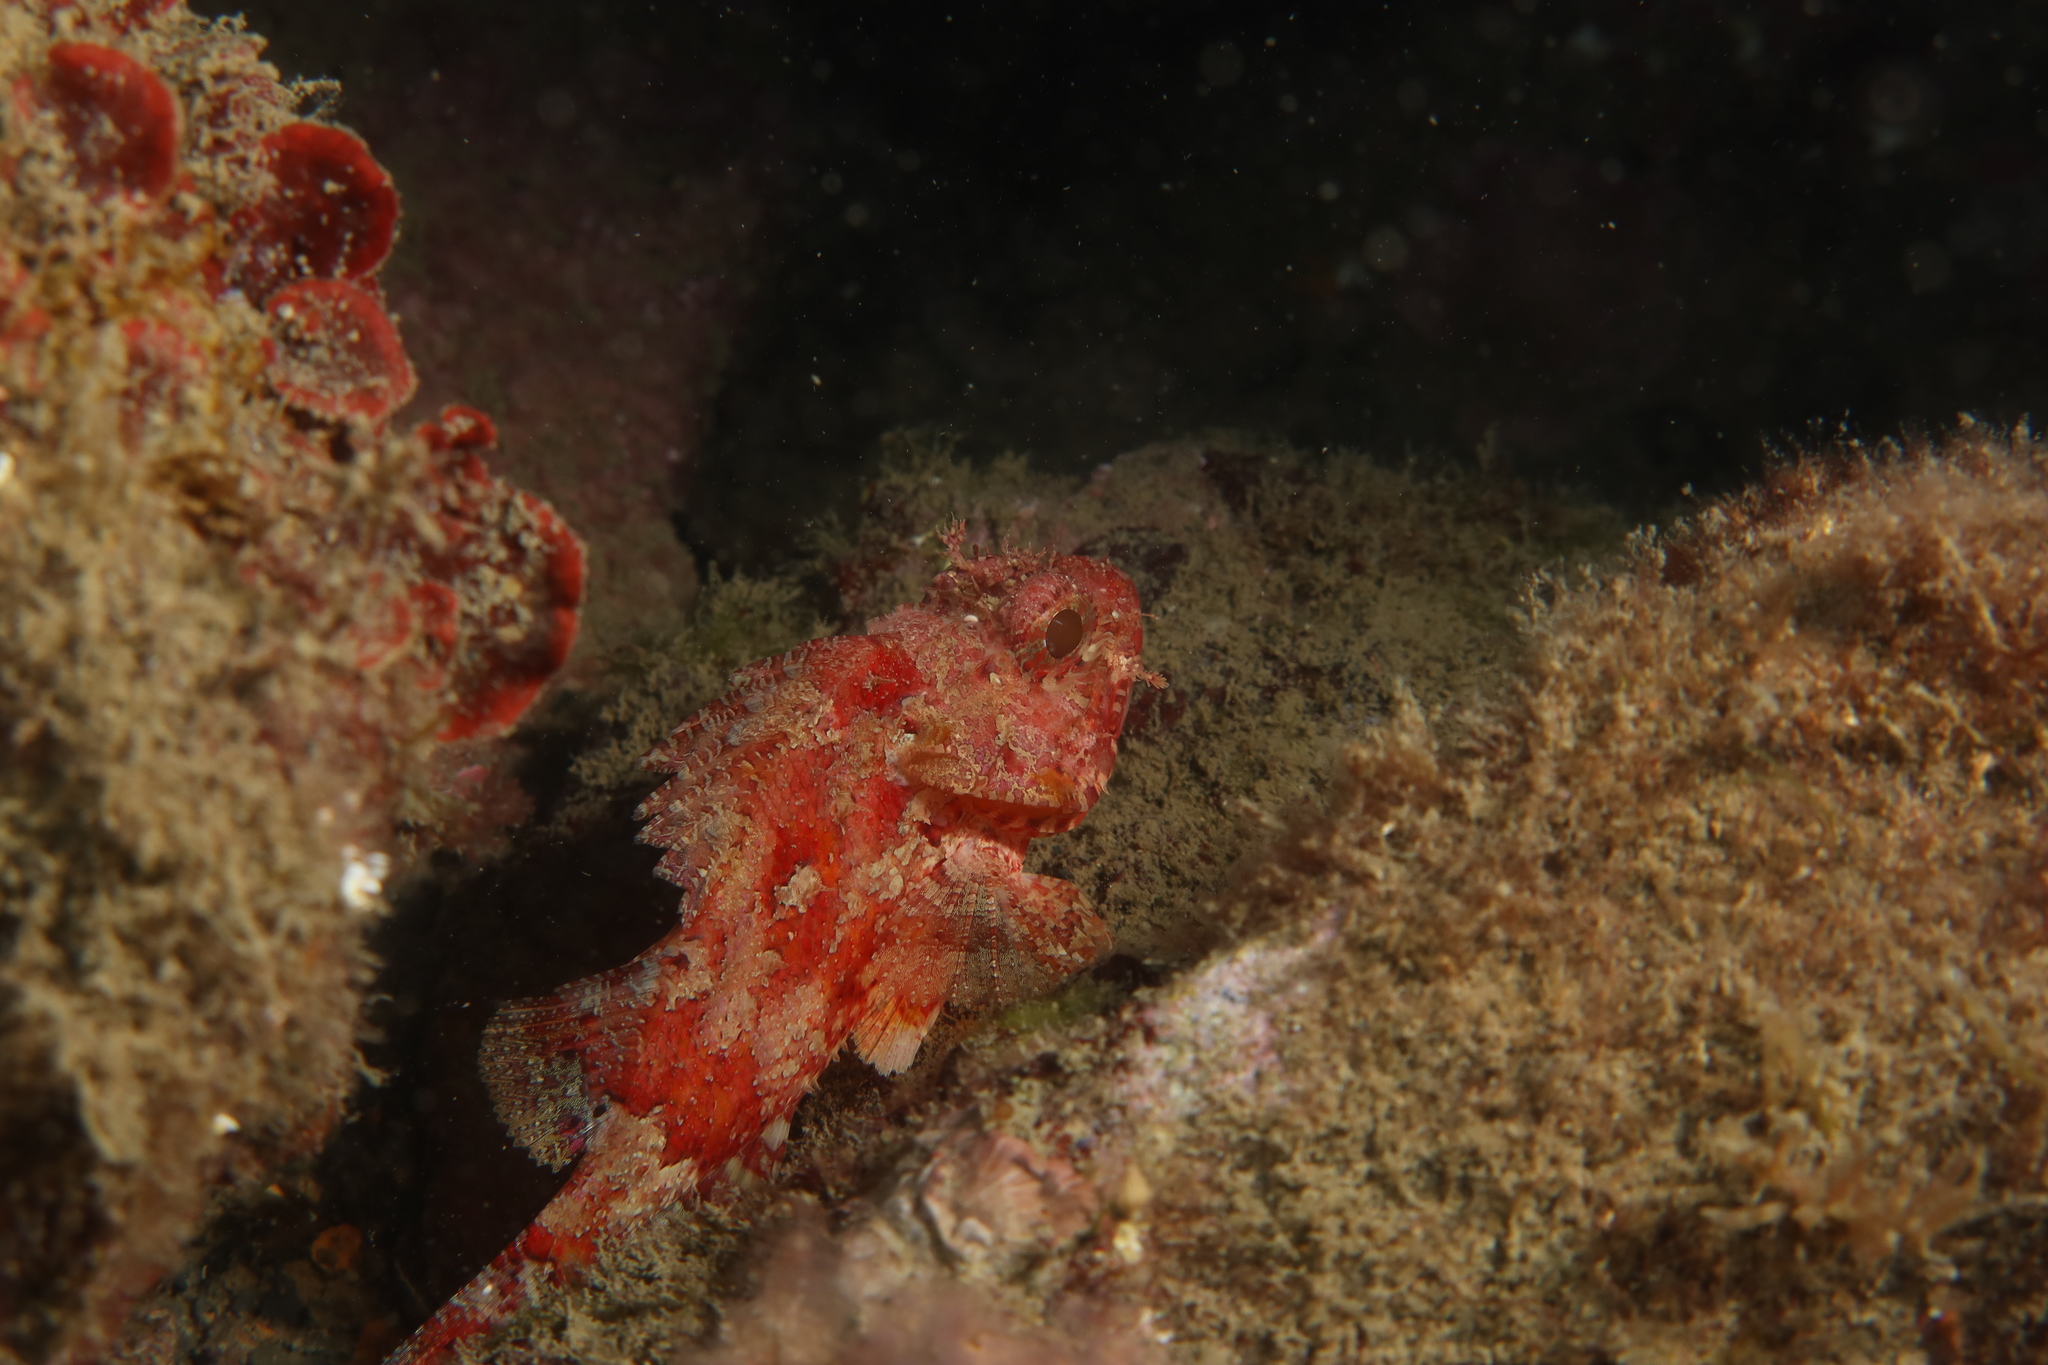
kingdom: Animalia
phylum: Chordata
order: Scorpaeniformes
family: Scorpaenidae
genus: Scorpaena
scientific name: Scorpaena notata
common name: Small red scorpionfish
